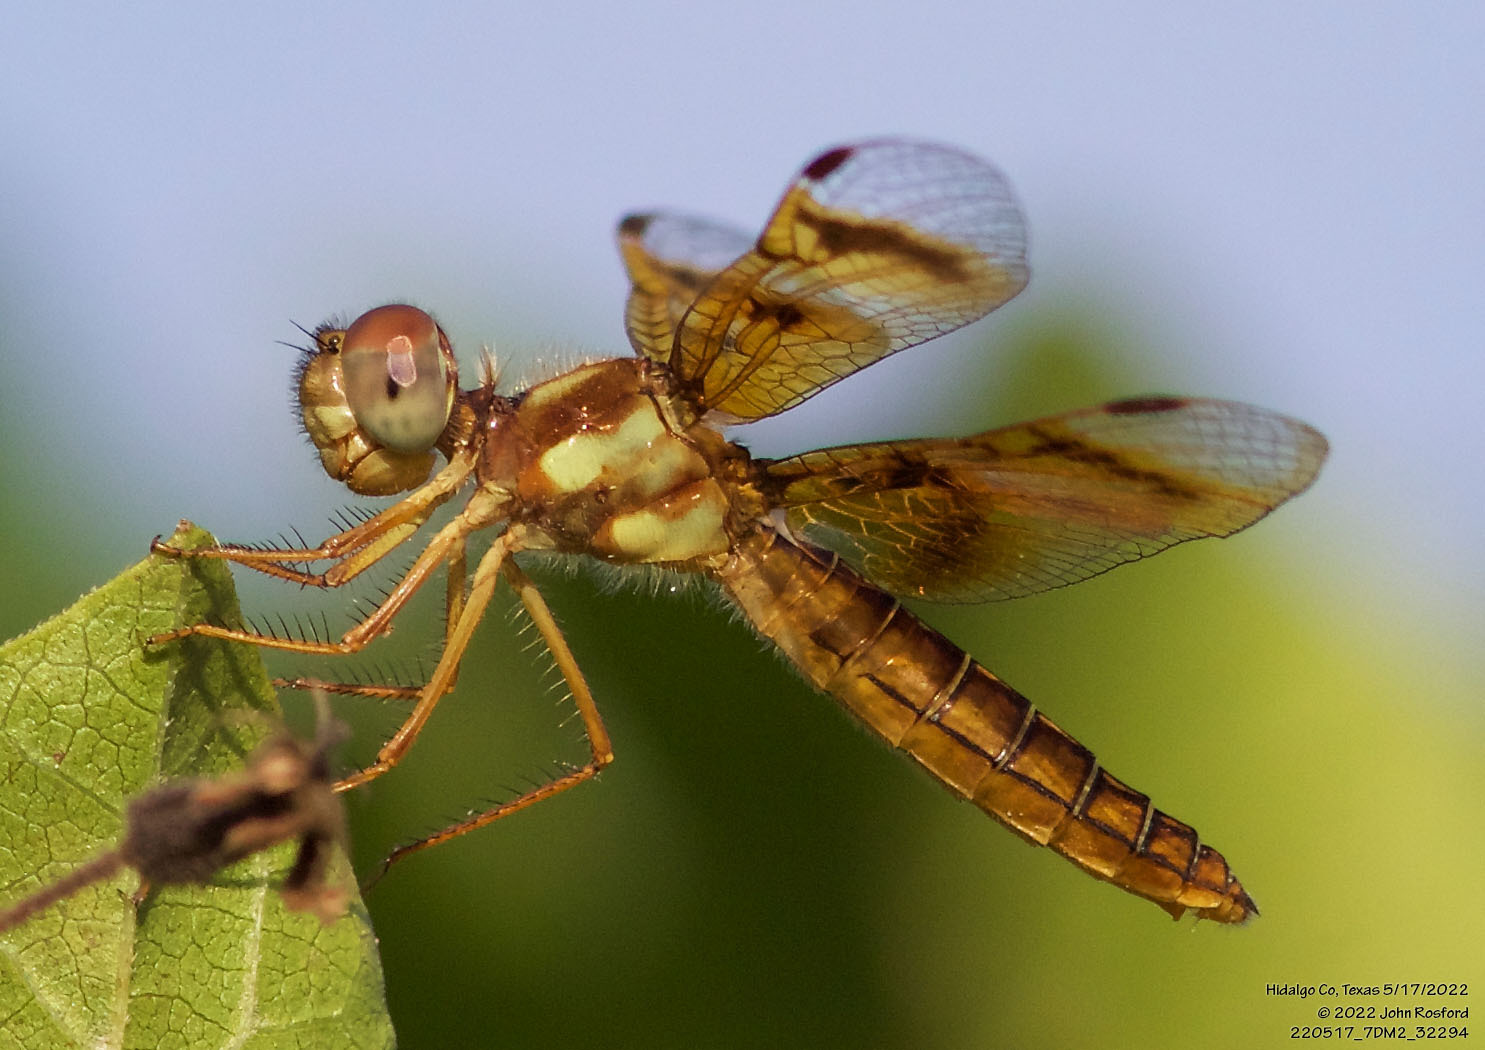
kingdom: Animalia
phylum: Arthropoda
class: Insecta
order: Odonata
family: Libellulidae
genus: Perithemis
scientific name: Perithemis tenera
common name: Eastern amberwing
